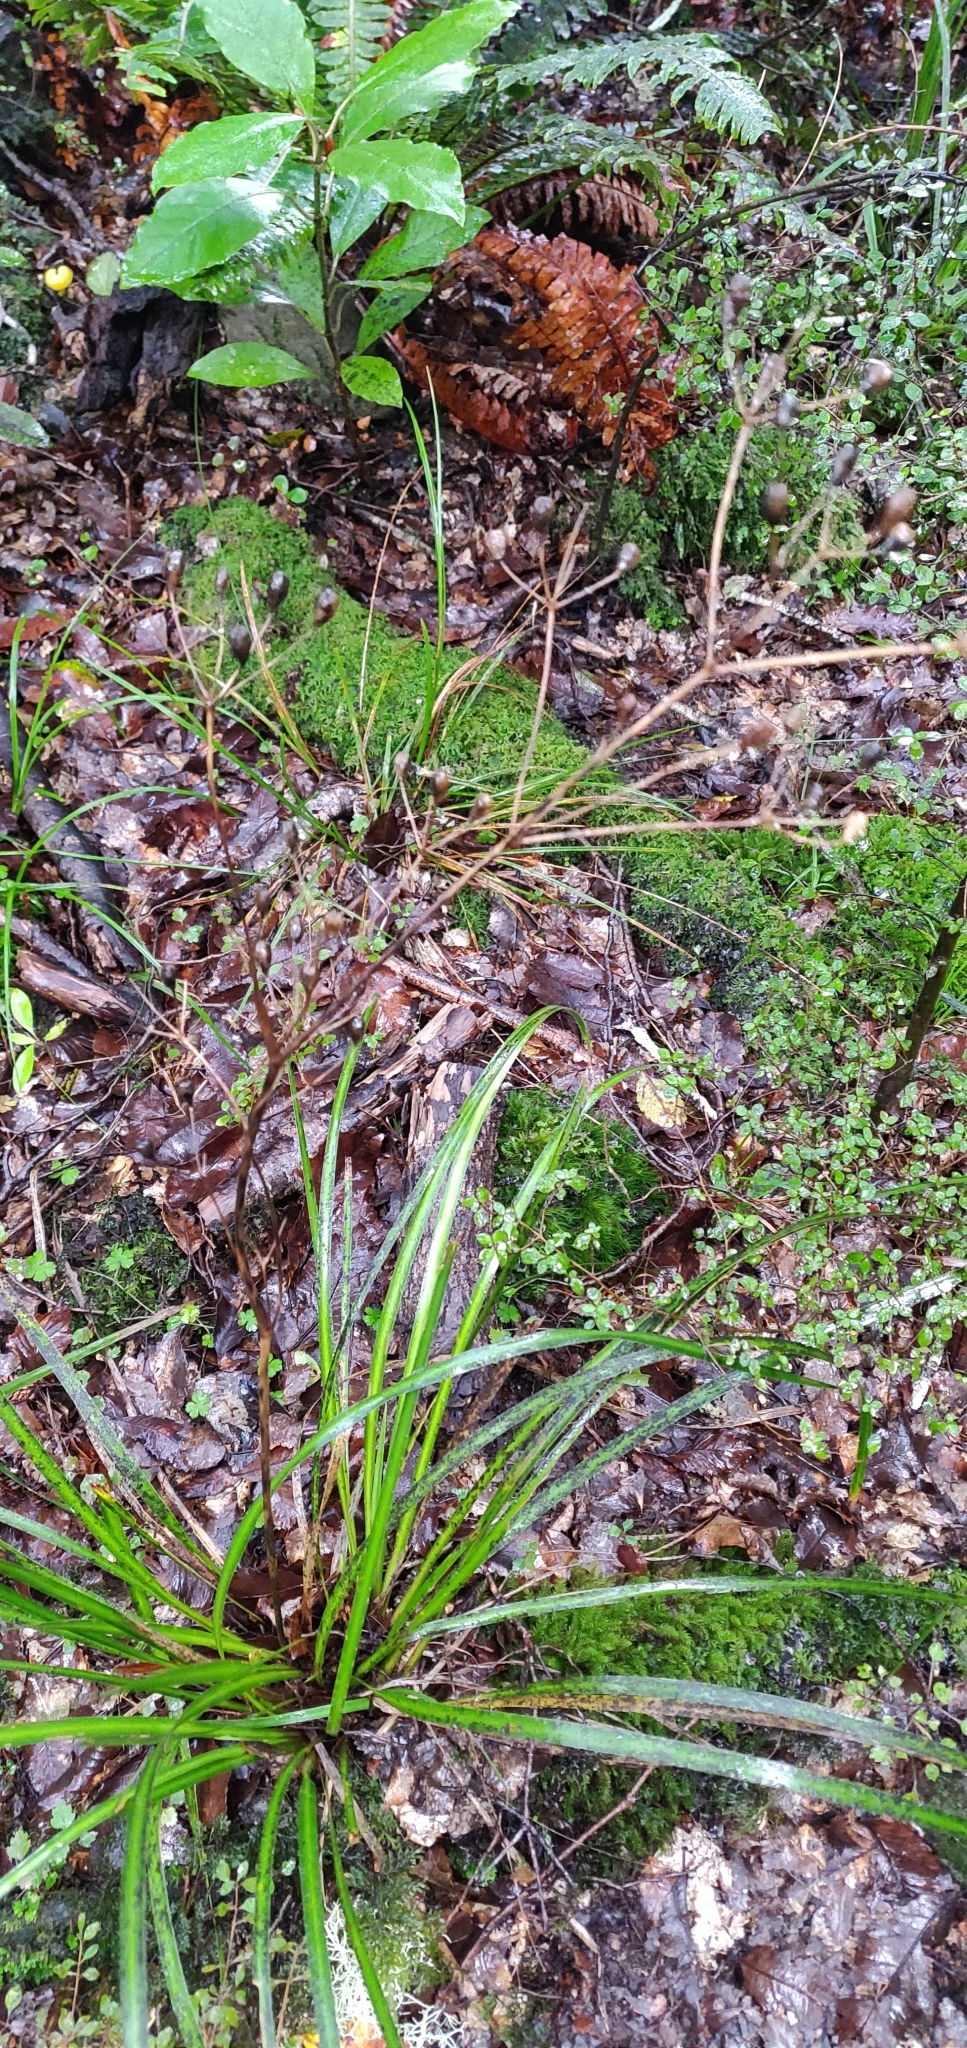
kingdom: Plantae
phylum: Tracheophyta
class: Liliopsida
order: Asparagales
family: Iridaceae
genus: Libertia
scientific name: Libertia ixioides
